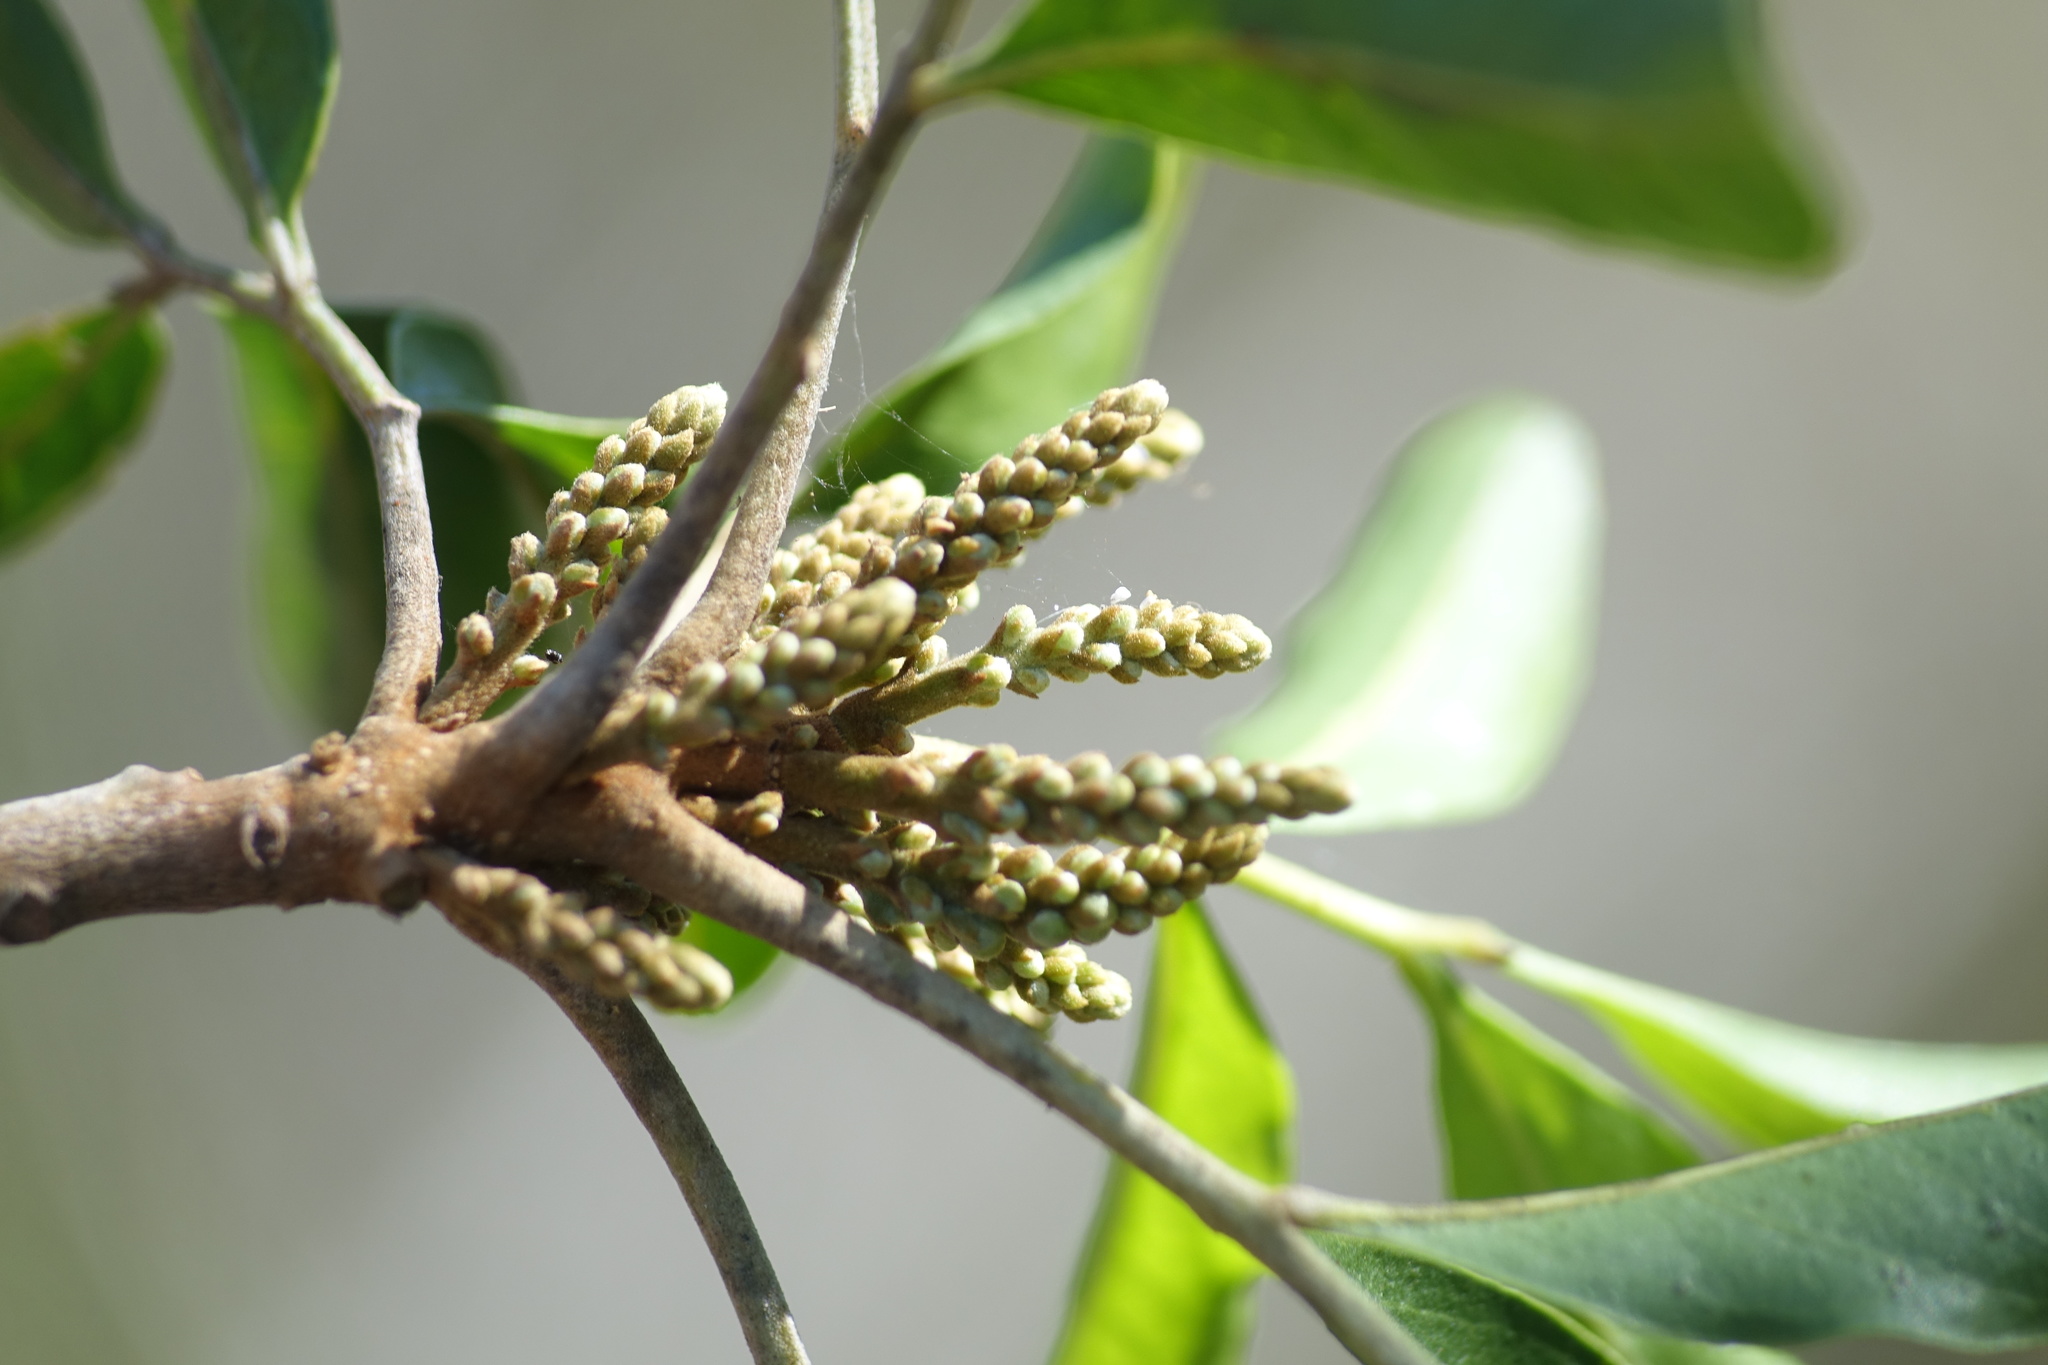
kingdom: Plantae
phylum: Tracheophyta
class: Magnoliopsida
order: Sapindales
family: Sapindaceae
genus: Tina
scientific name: Tina isaloensis
